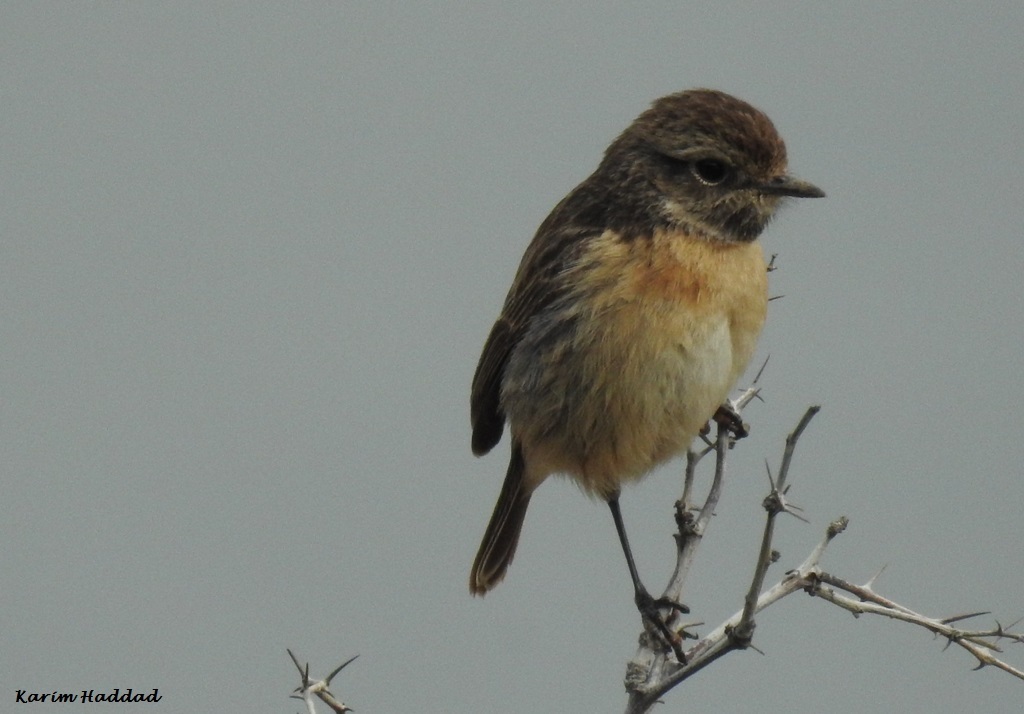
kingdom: Animalia
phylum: Chordata
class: Aves
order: Passeriformes
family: Muscicapidae
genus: Saxicola
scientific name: Saxicola rubicola
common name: European stonechat
